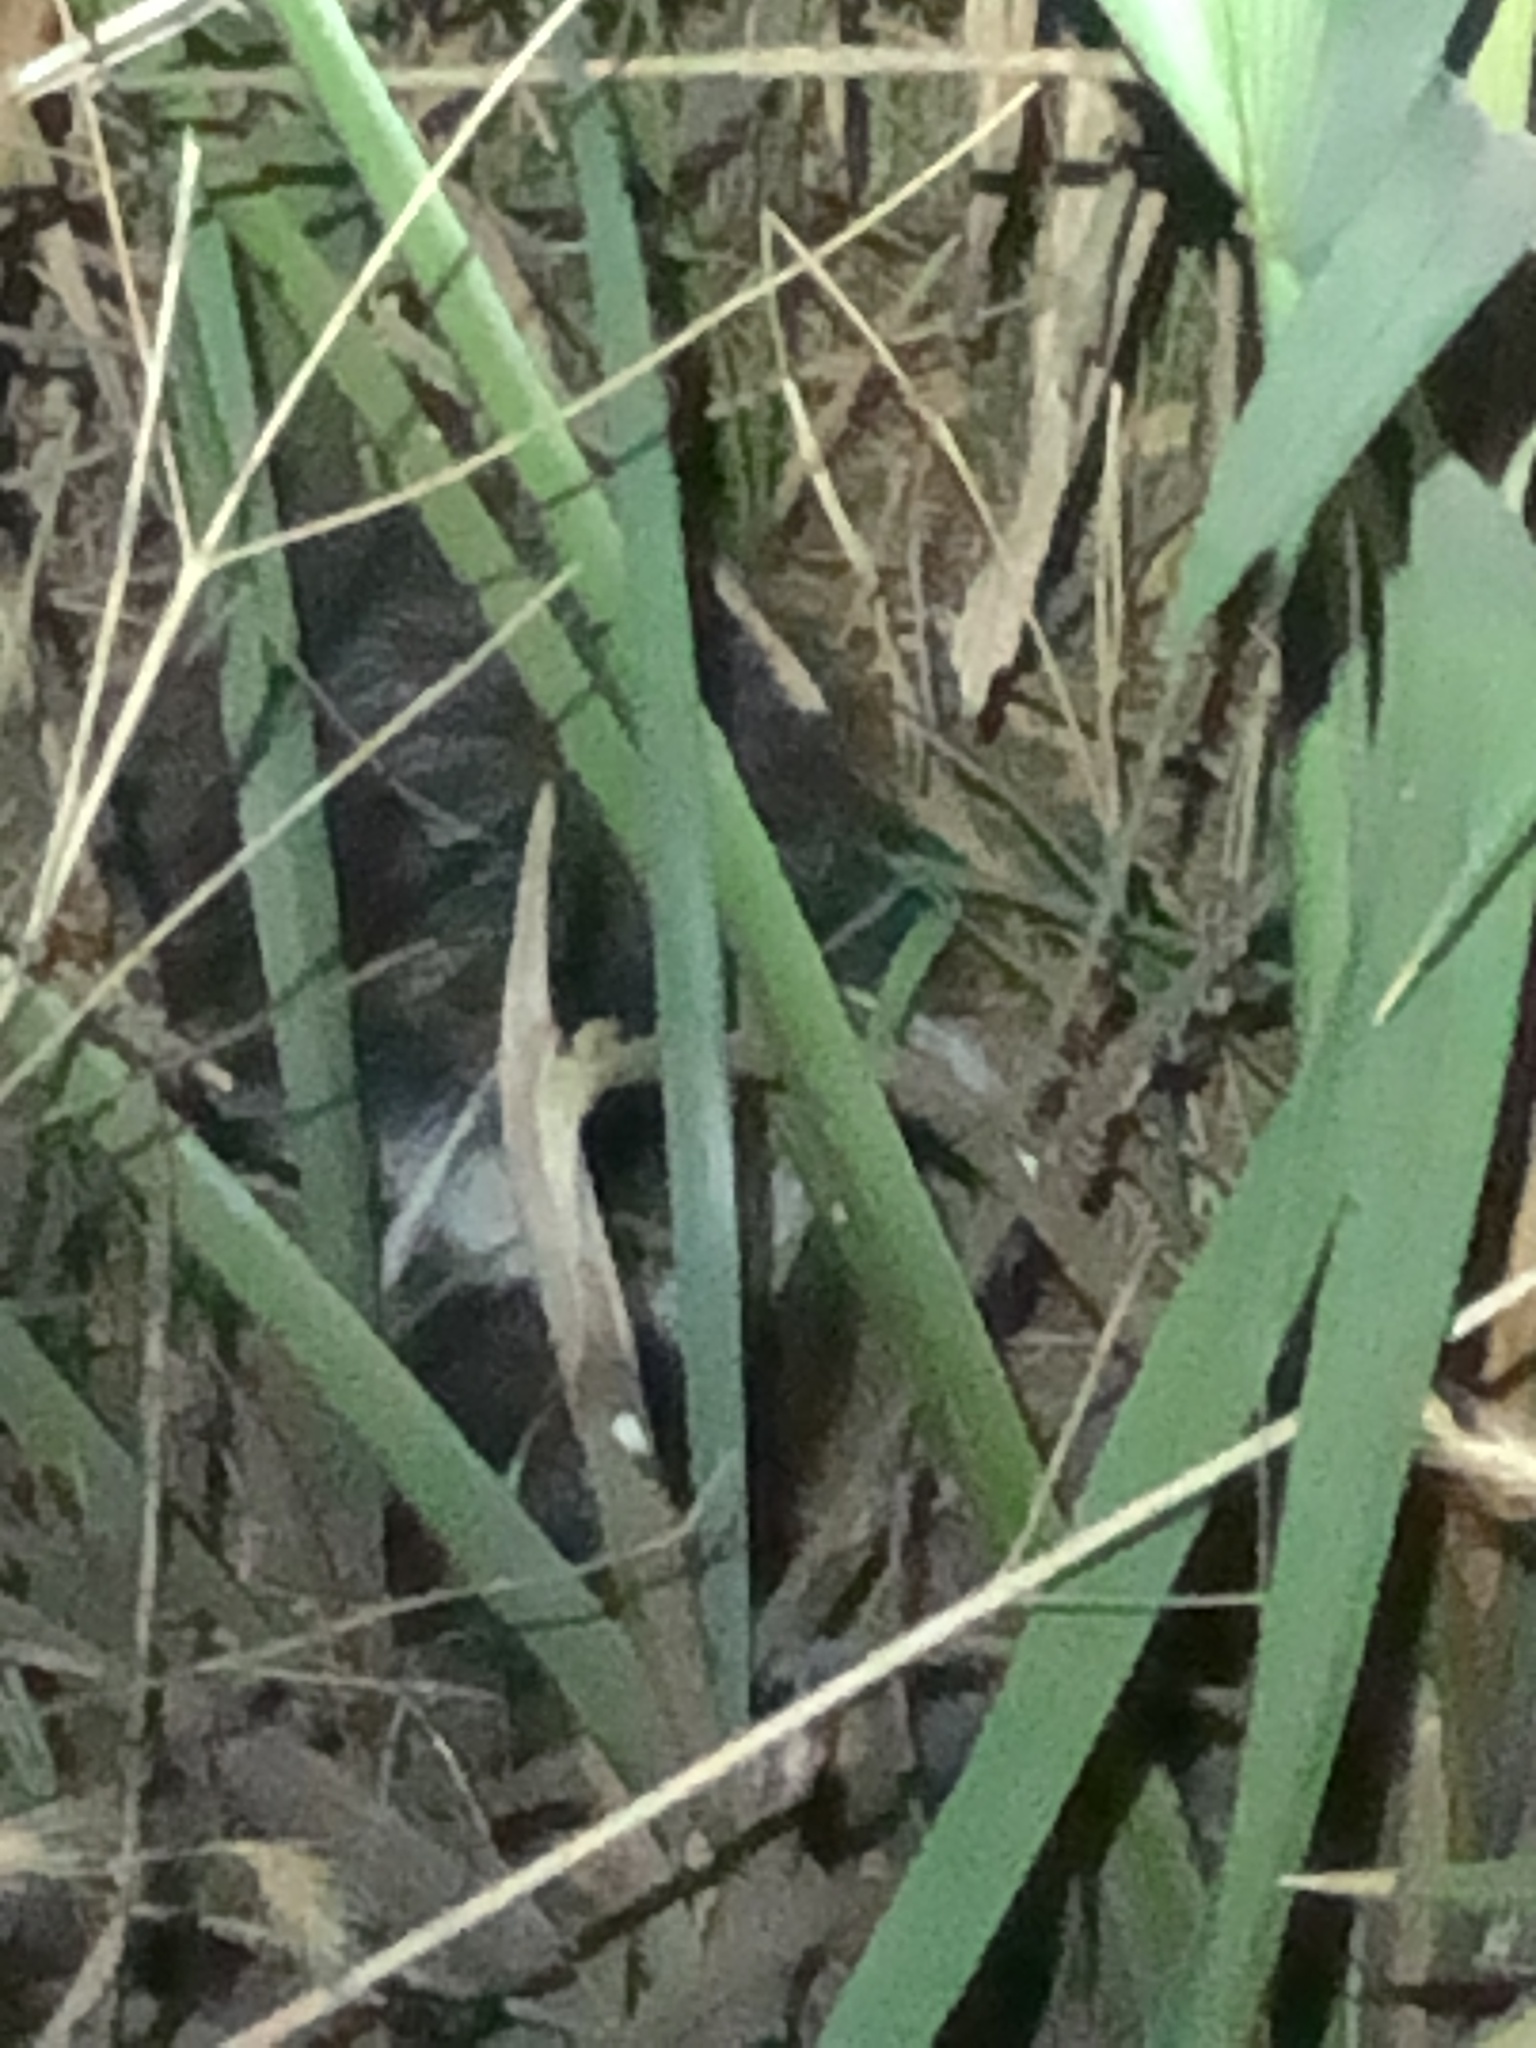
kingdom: Animalia
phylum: Chordata
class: Mammalia
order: Carnivora
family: Mephitidae
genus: Mephitis
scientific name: Mephitis mephitis
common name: Striped skunk
